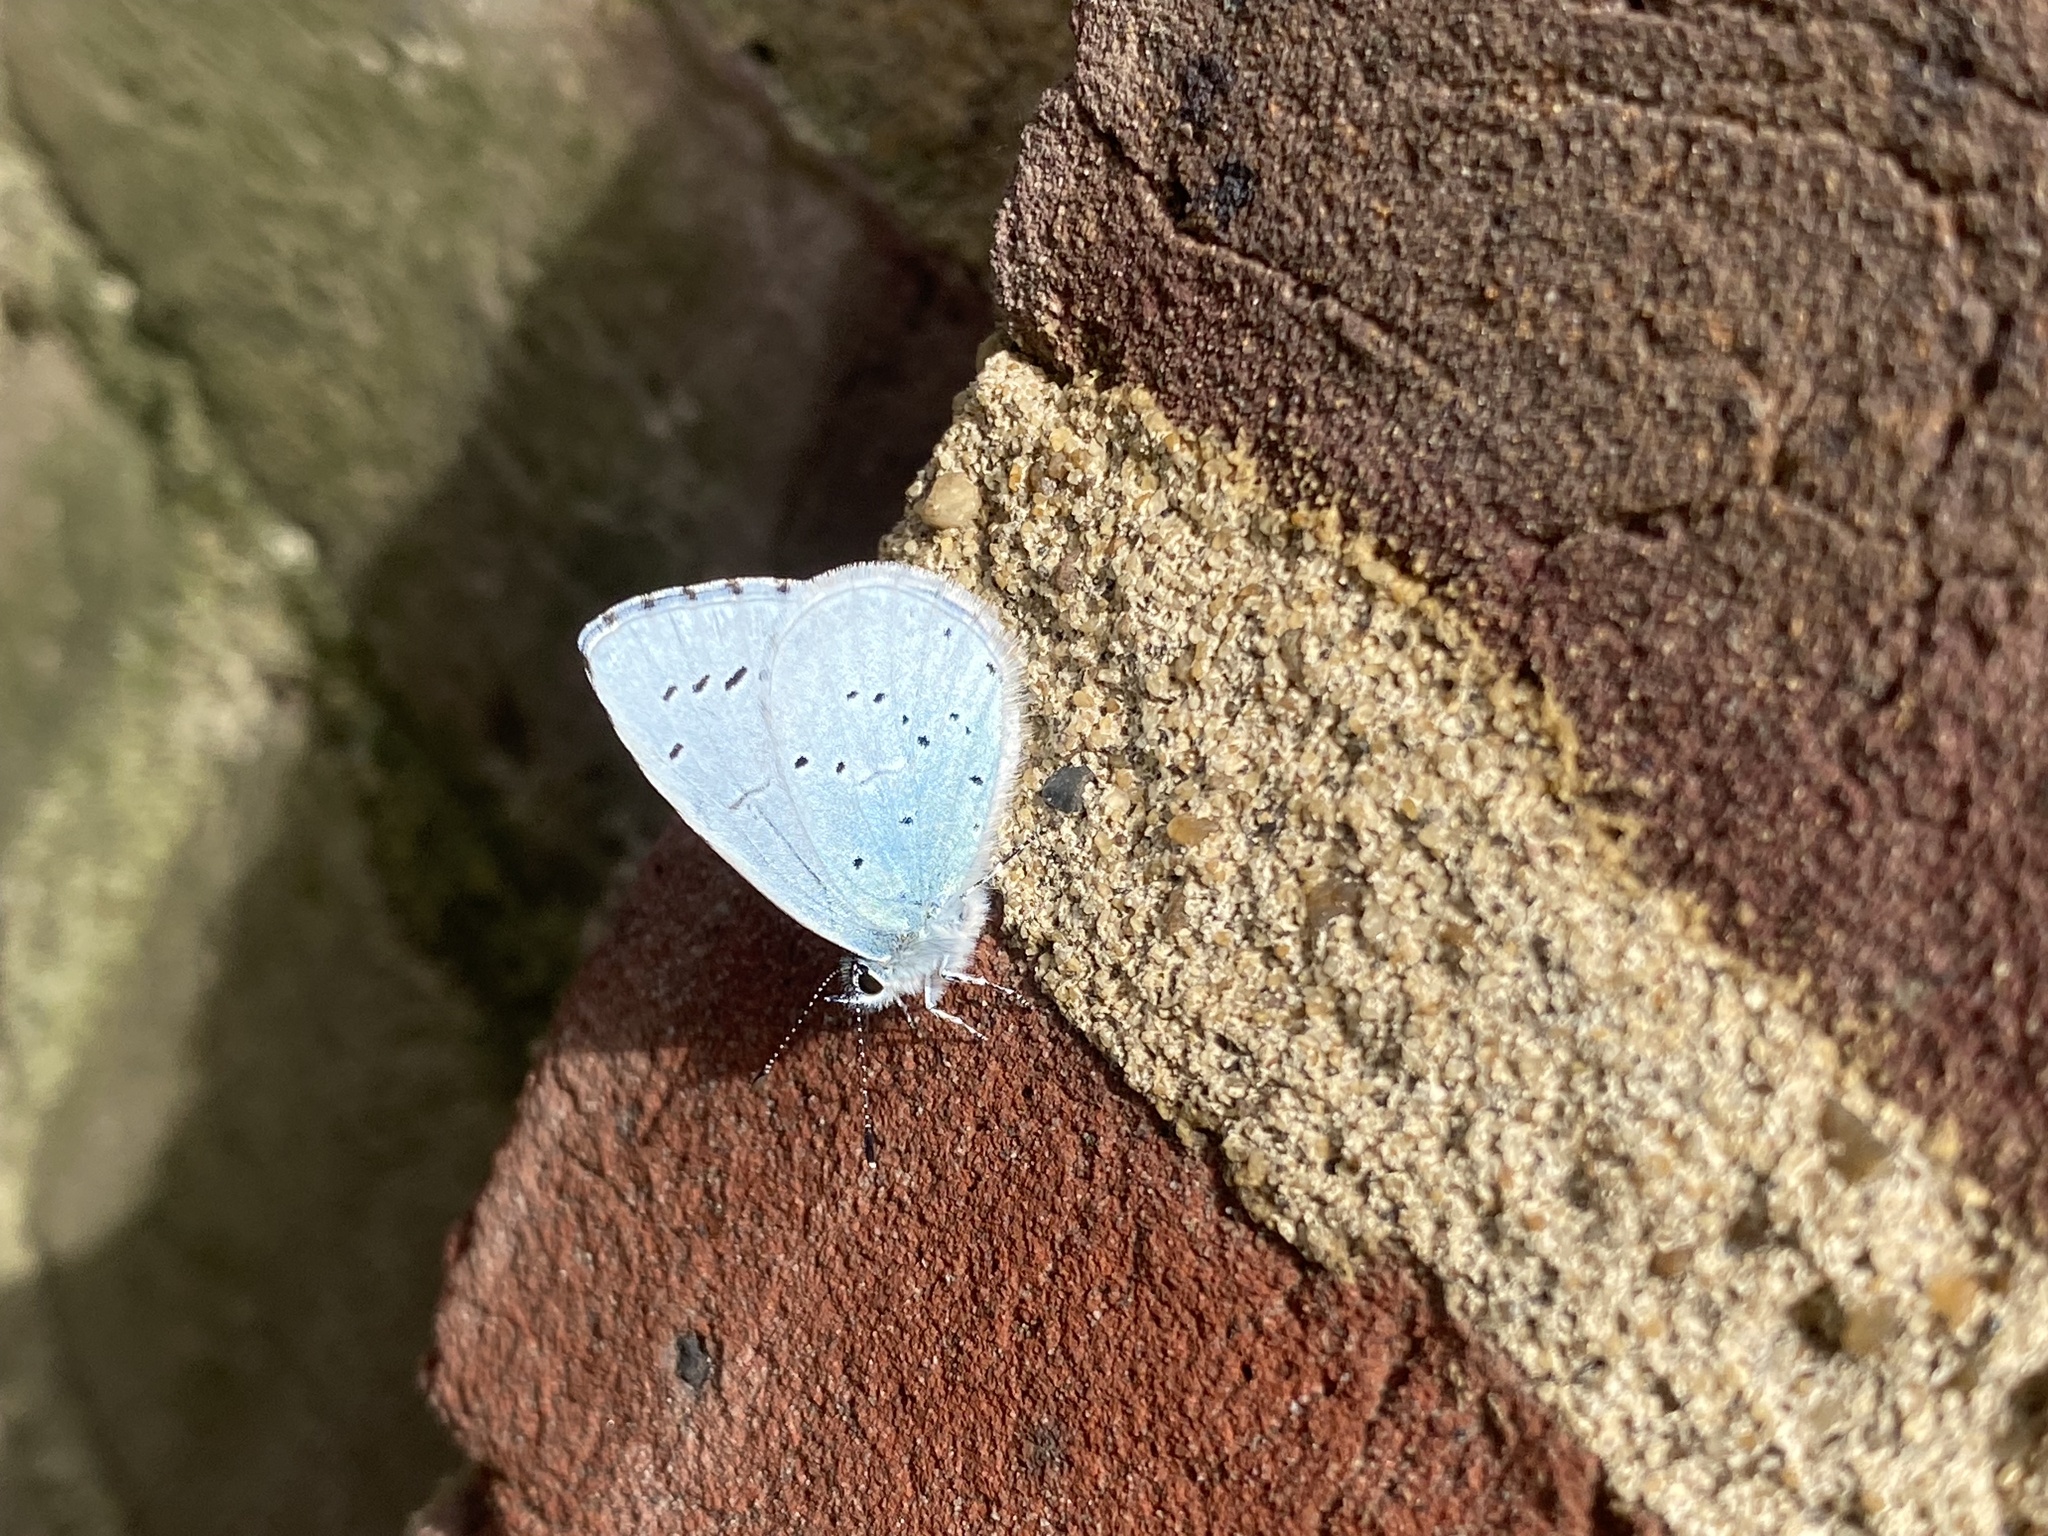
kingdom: Animalia
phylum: Arthropoda
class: Insecta
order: Lepidoptera
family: Lycaenidae
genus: Celastrina
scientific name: Celastrina argiolus
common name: Holly blue
